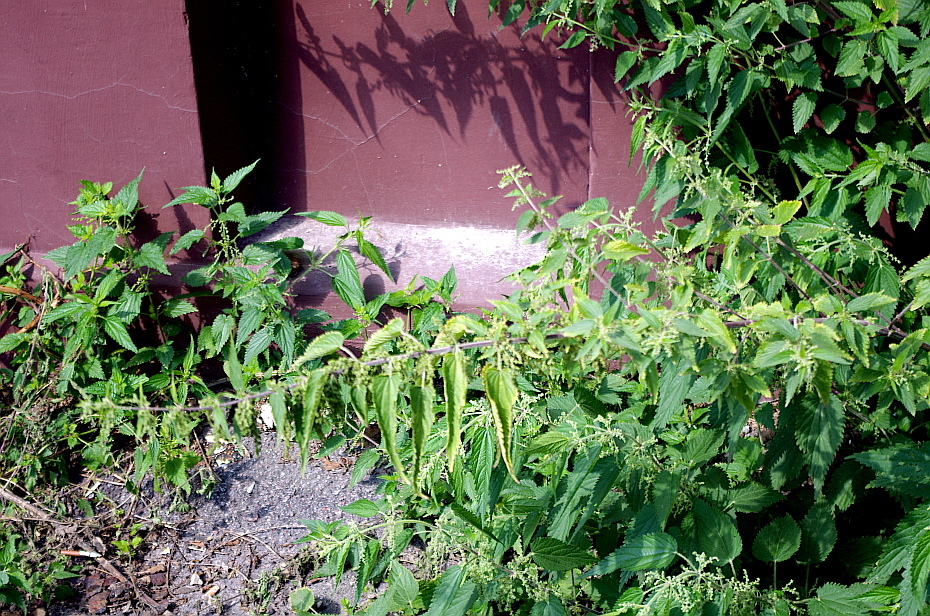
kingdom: Plantae
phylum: Tracheophyta
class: Magnoliopsida
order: Rosales
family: Urticaceae
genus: Urtica
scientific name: Urtica dioica
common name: Common nettle
